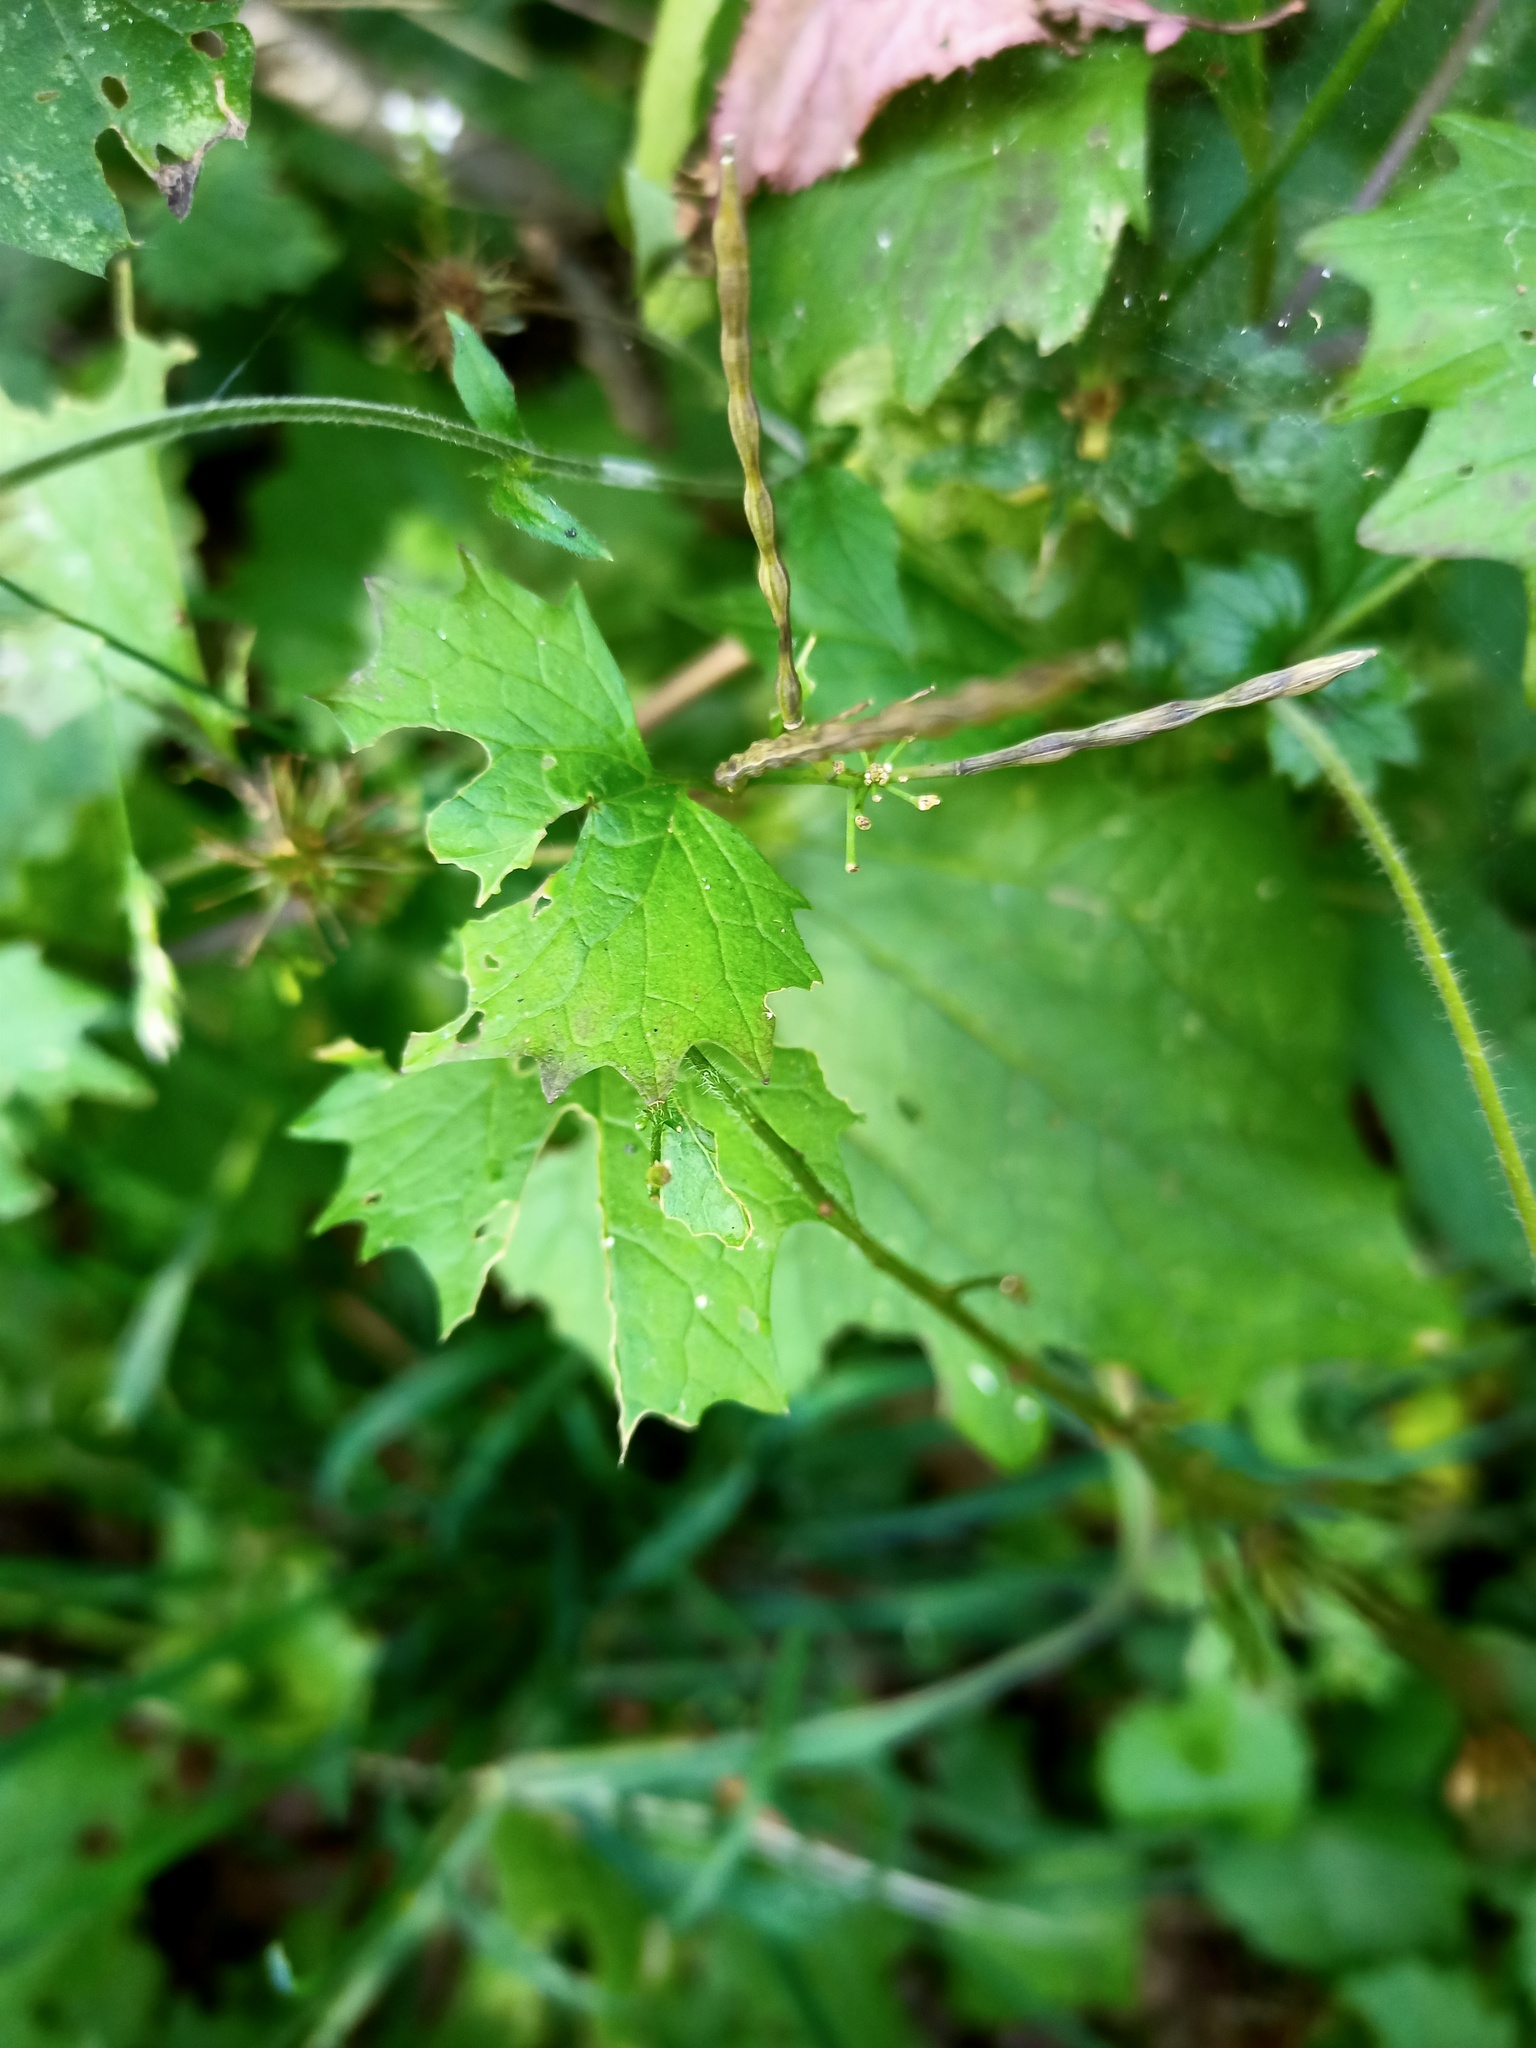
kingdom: Plantae
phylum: Tracheophyta
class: Magnoliopsida
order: Brassicales
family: Brassicaceae
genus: Alliaria
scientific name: Alliaria petiolata
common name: Garlic mustard
